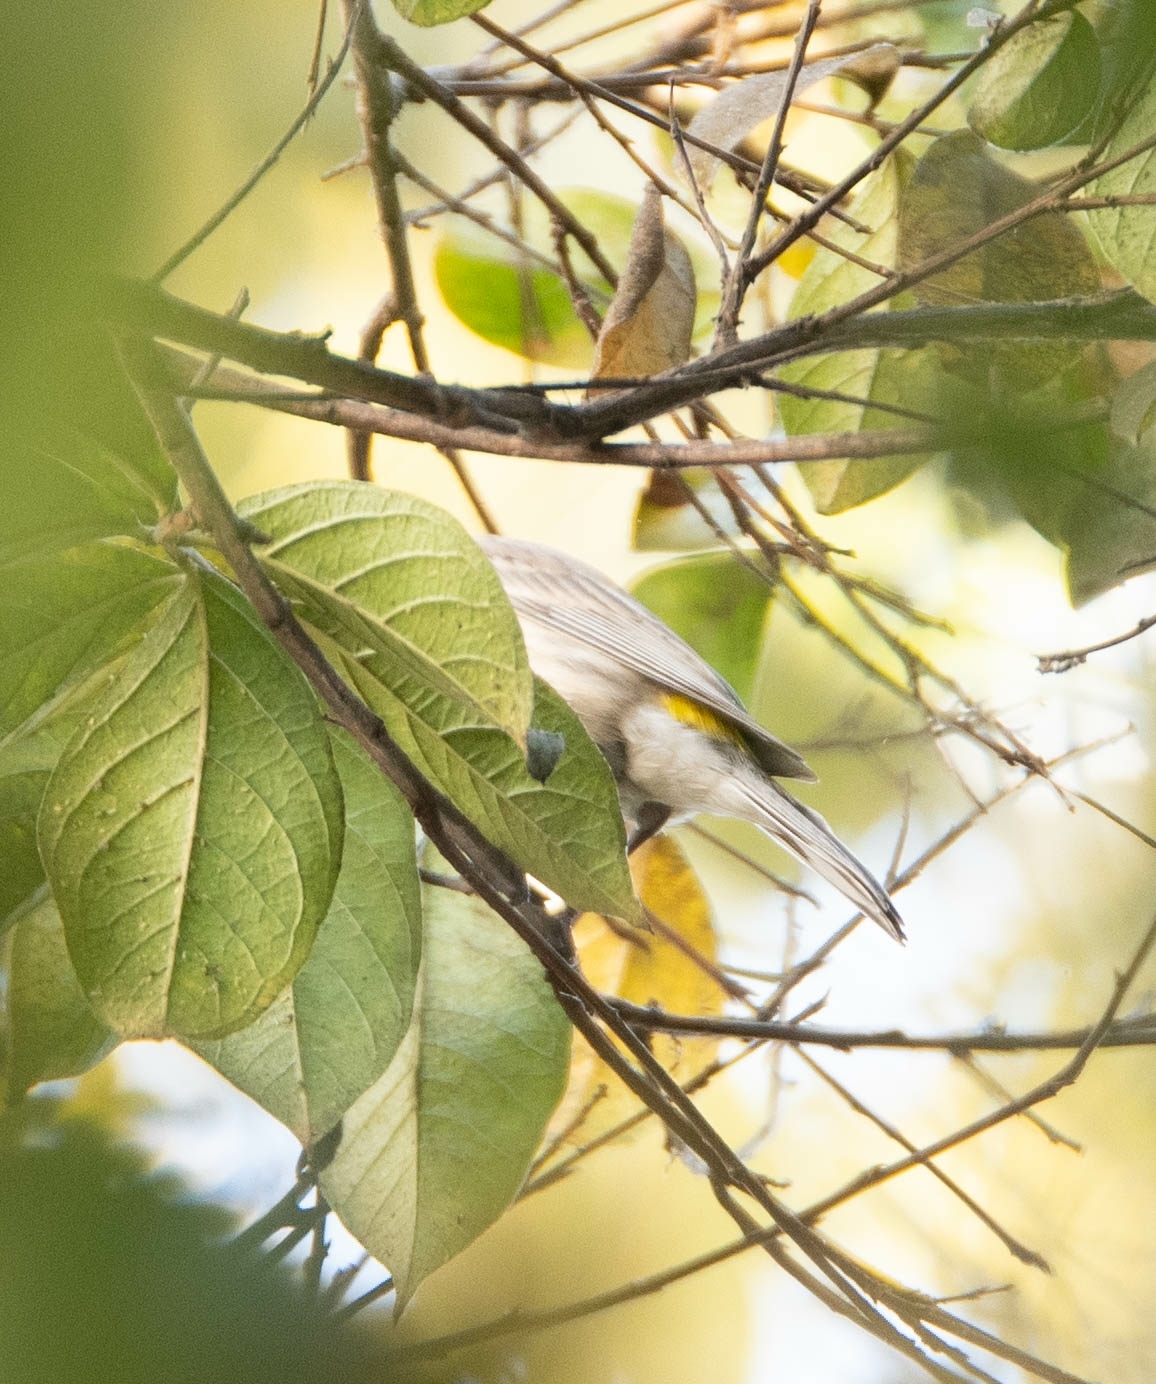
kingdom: Animalia
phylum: Chordata
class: Aves
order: Passeriformes
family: Parulidae
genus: Setophaga
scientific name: Setophaga coronata
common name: Myrtle warbler
